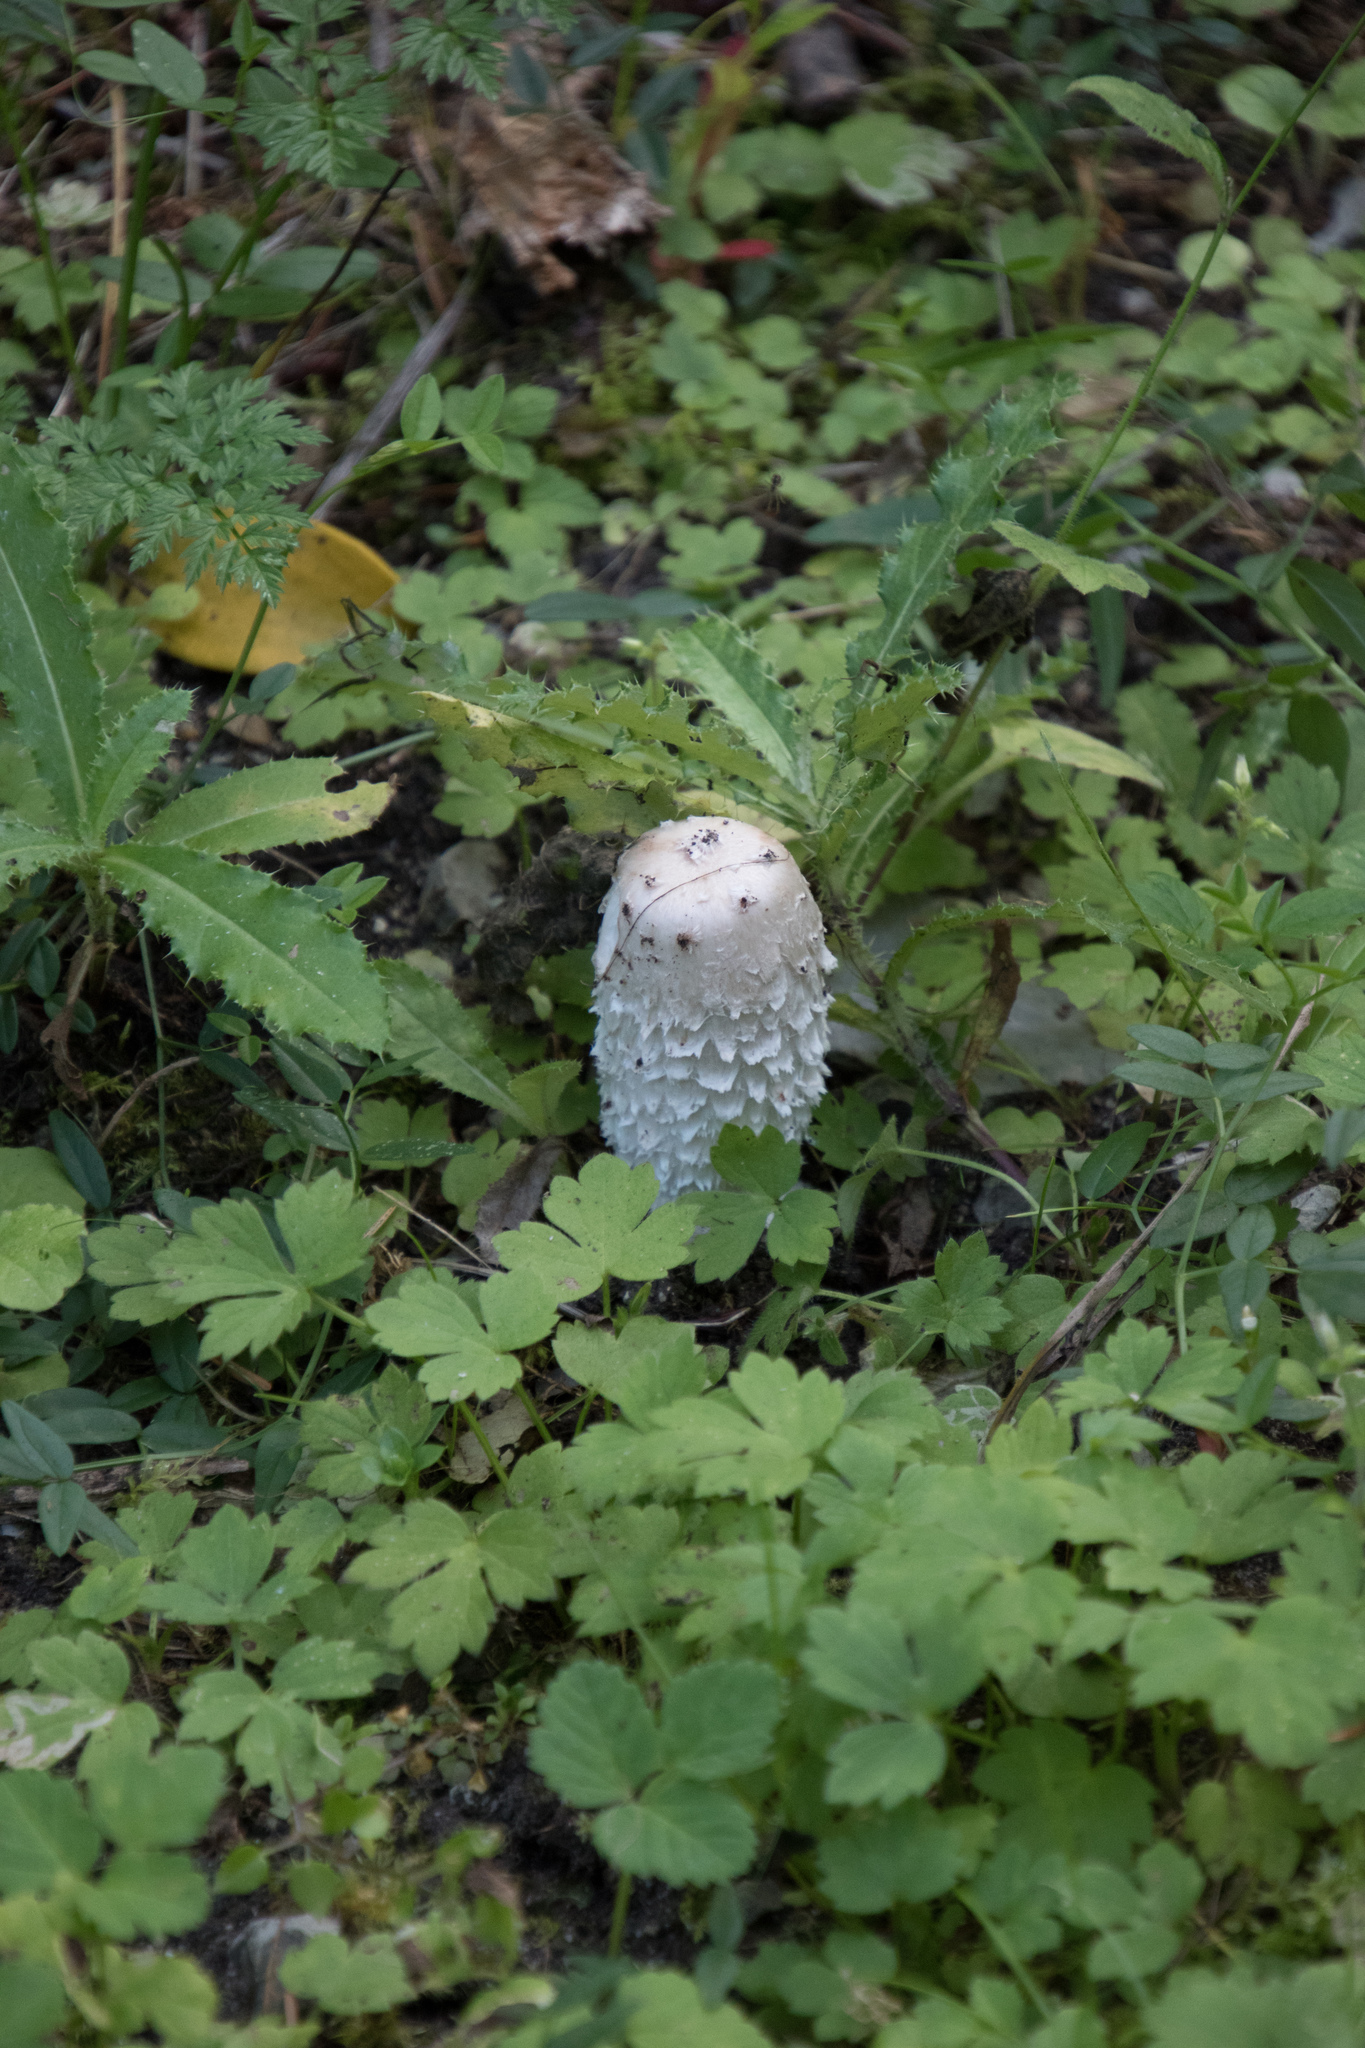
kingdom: Fungi
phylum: Basidiomycota
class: Agaricomycetes
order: Agaricales
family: Agaricaceae
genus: Coprinus
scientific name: Coprinus comatus
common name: Lawyer's wig
